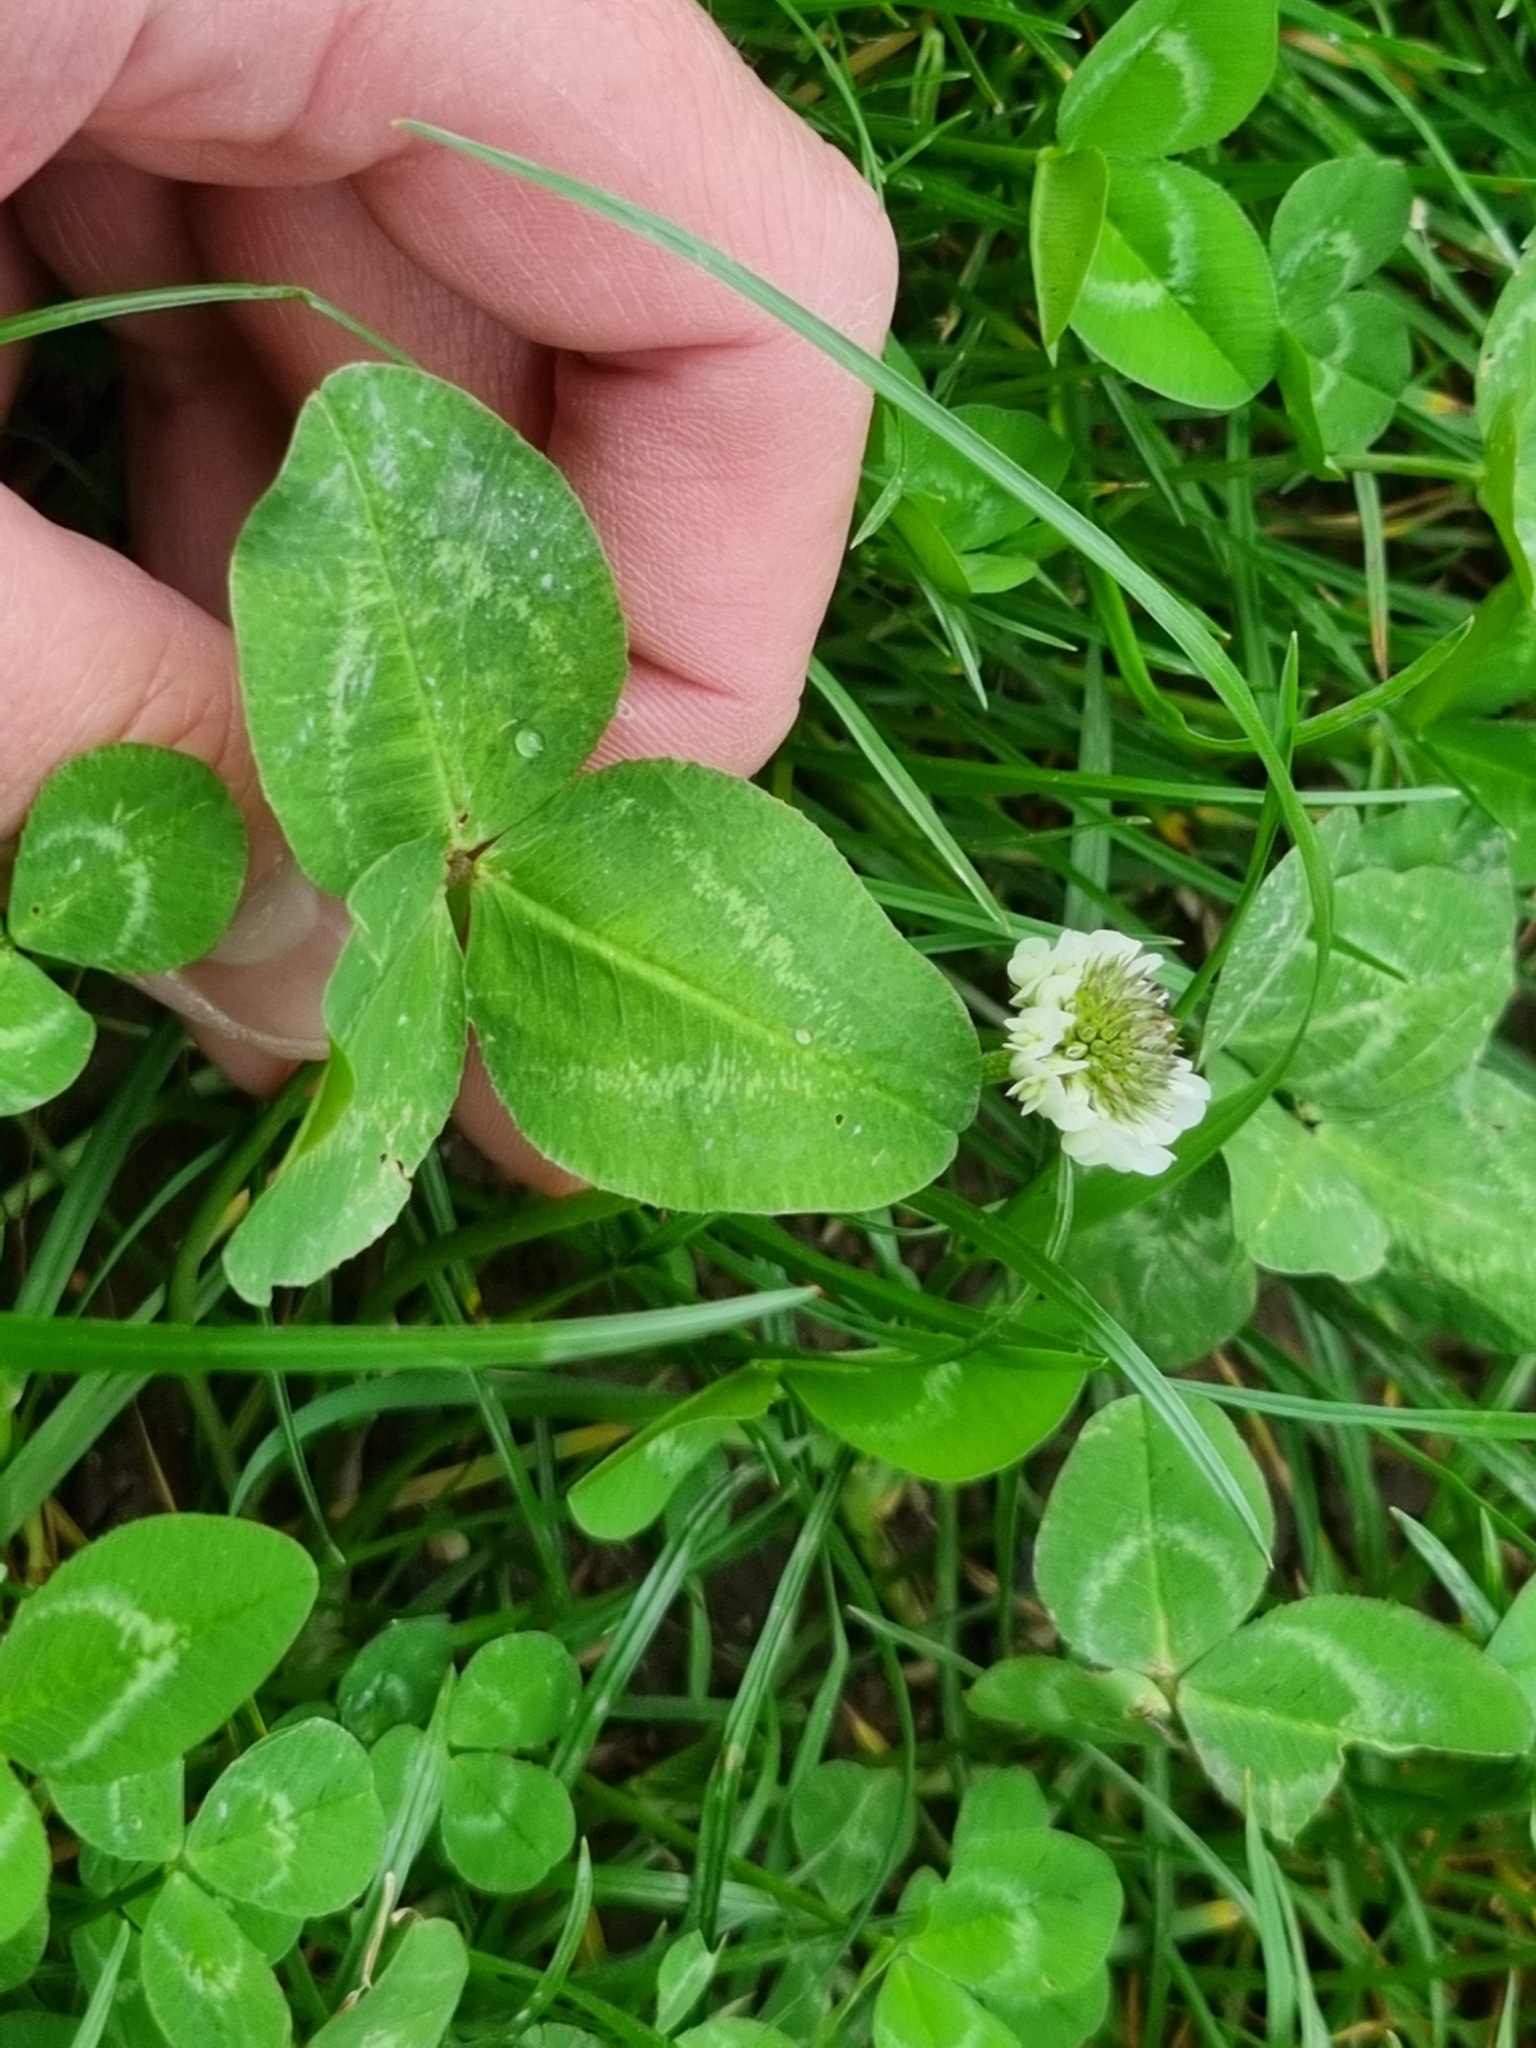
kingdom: Plantae
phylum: Tracheophyta
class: Magnoliopsida
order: Fabales
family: Fabaceae
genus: Trifolium
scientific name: Trifolium repens
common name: White clover
